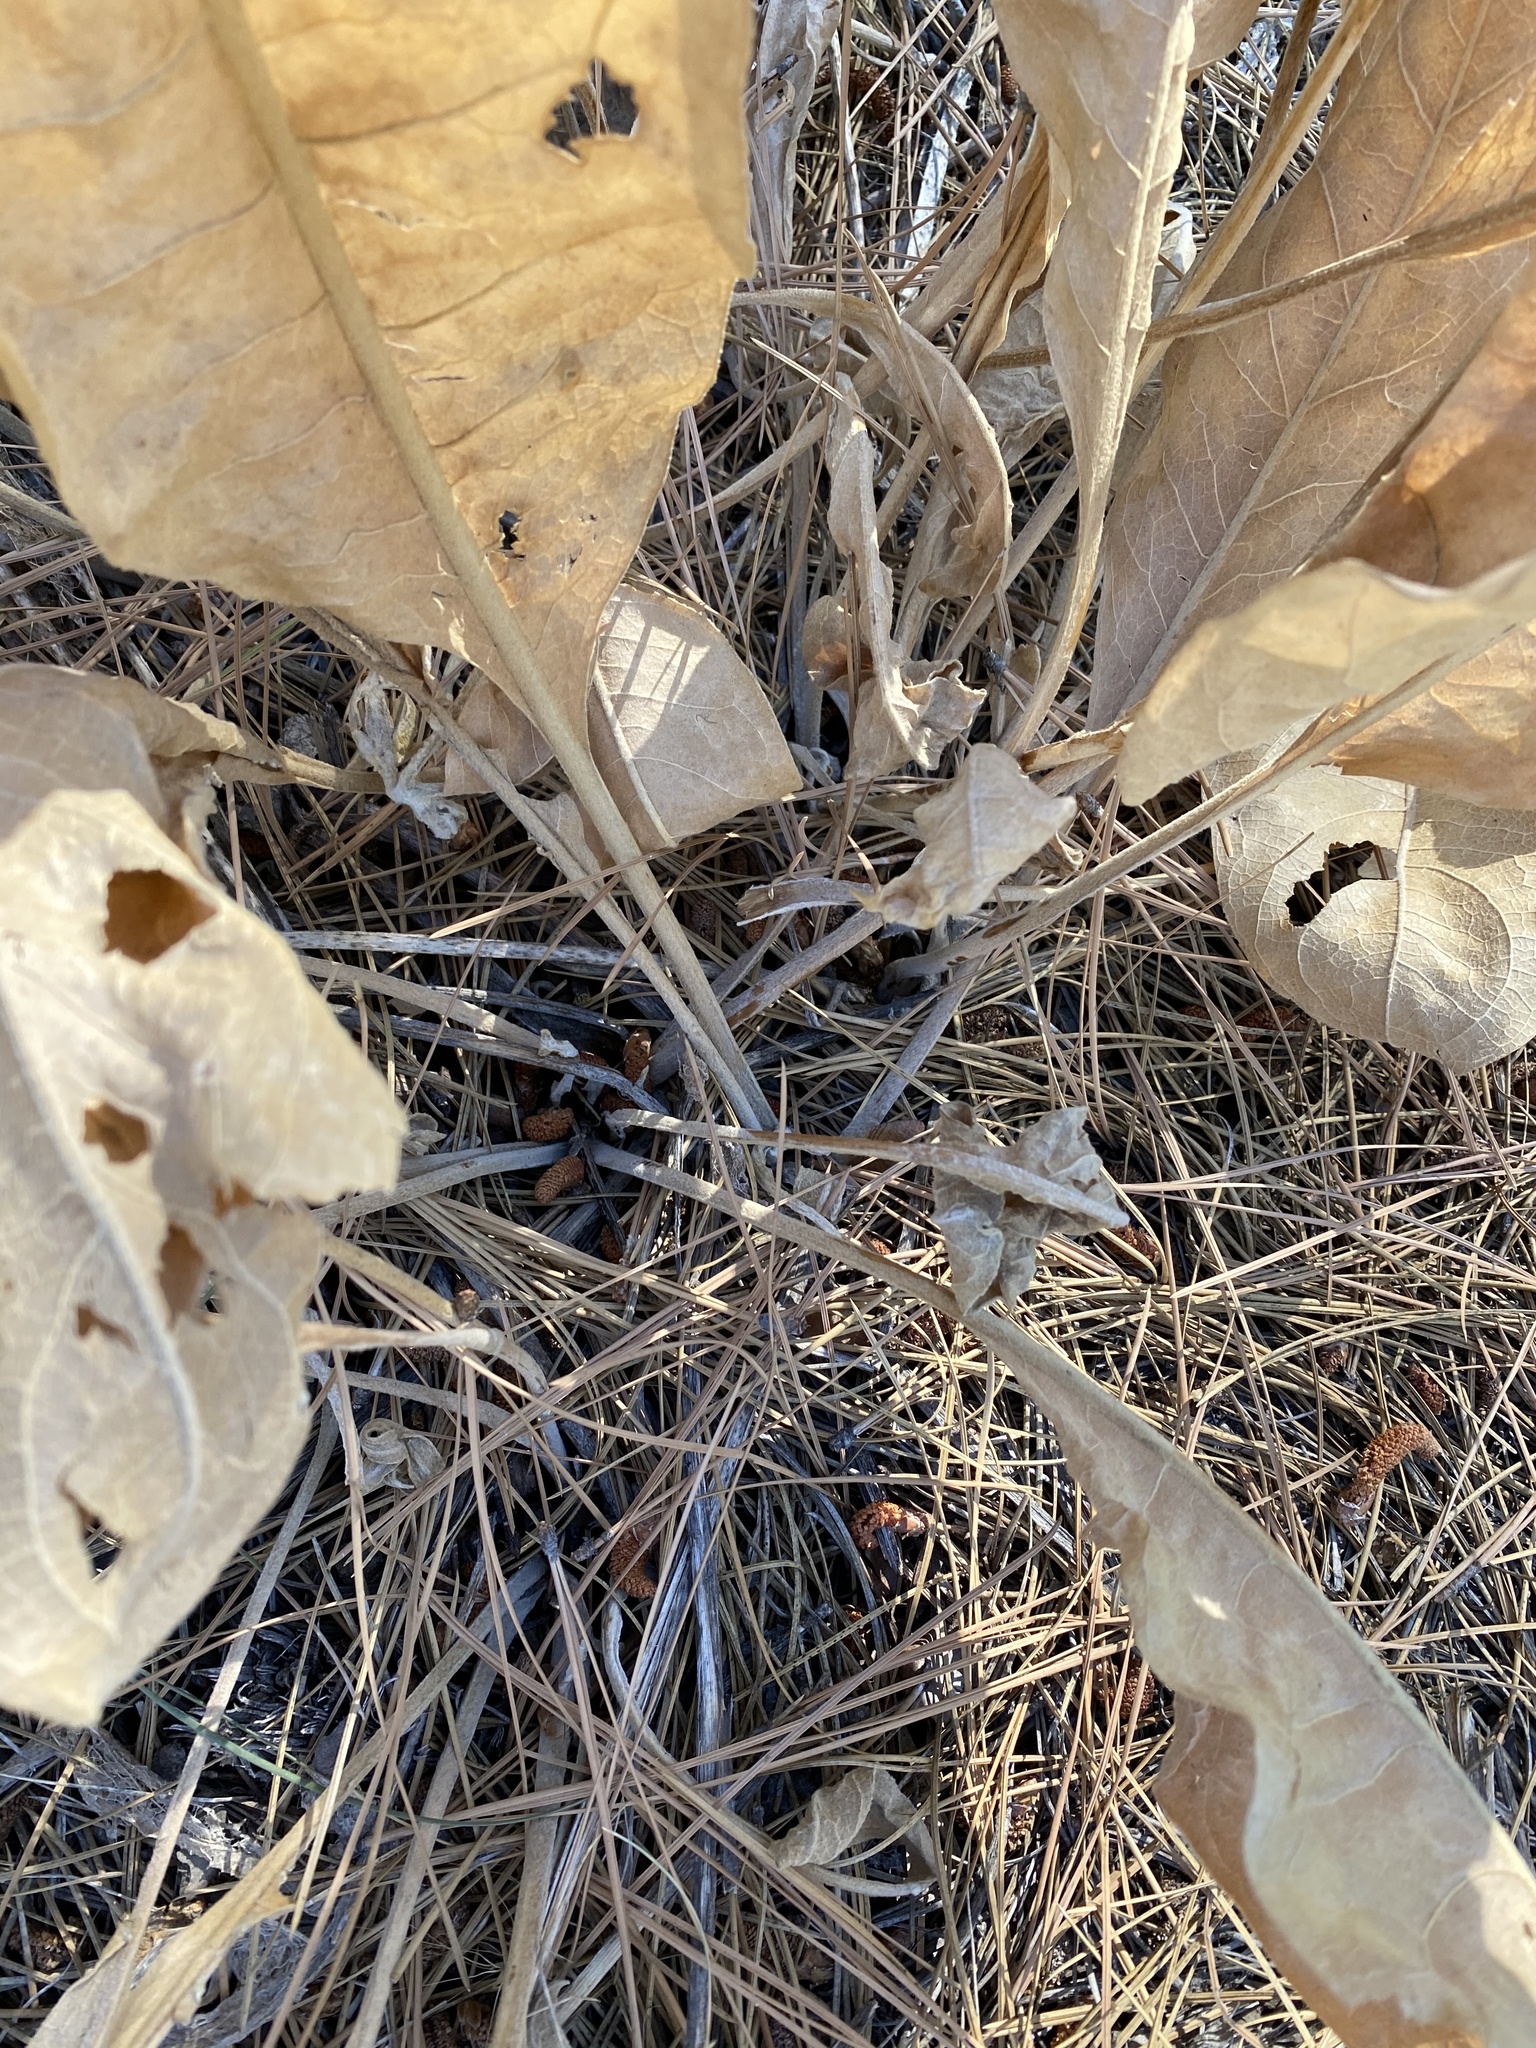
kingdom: Plantae
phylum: Tracheophyta
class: Magnoliopsida
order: Asterales
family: Asteraceae
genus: Wyethia
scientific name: Wyethia mollis
